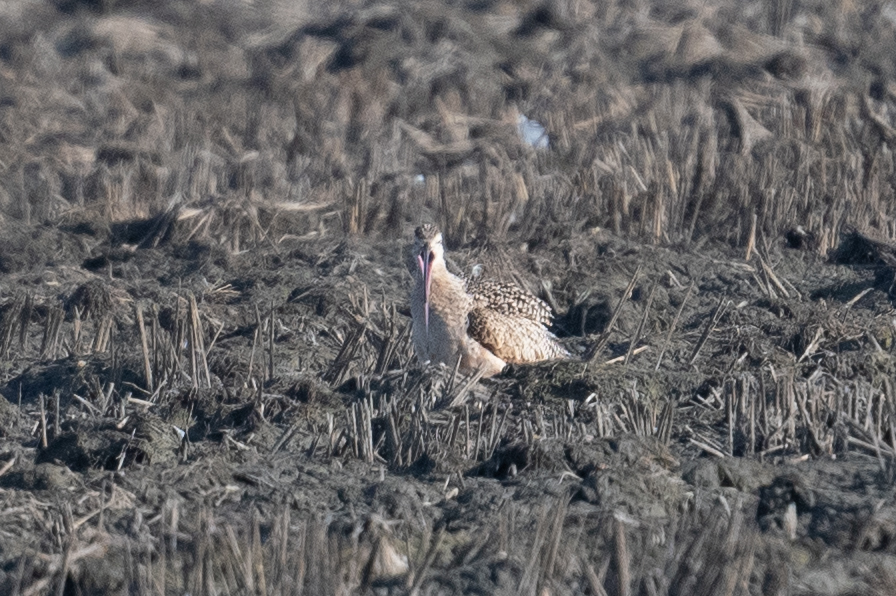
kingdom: Animalia
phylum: Chordata
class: Aves
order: Charadriiformes
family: Scolopacidae
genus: Numenius
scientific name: Numenius americanus
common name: Long-billed curlew
